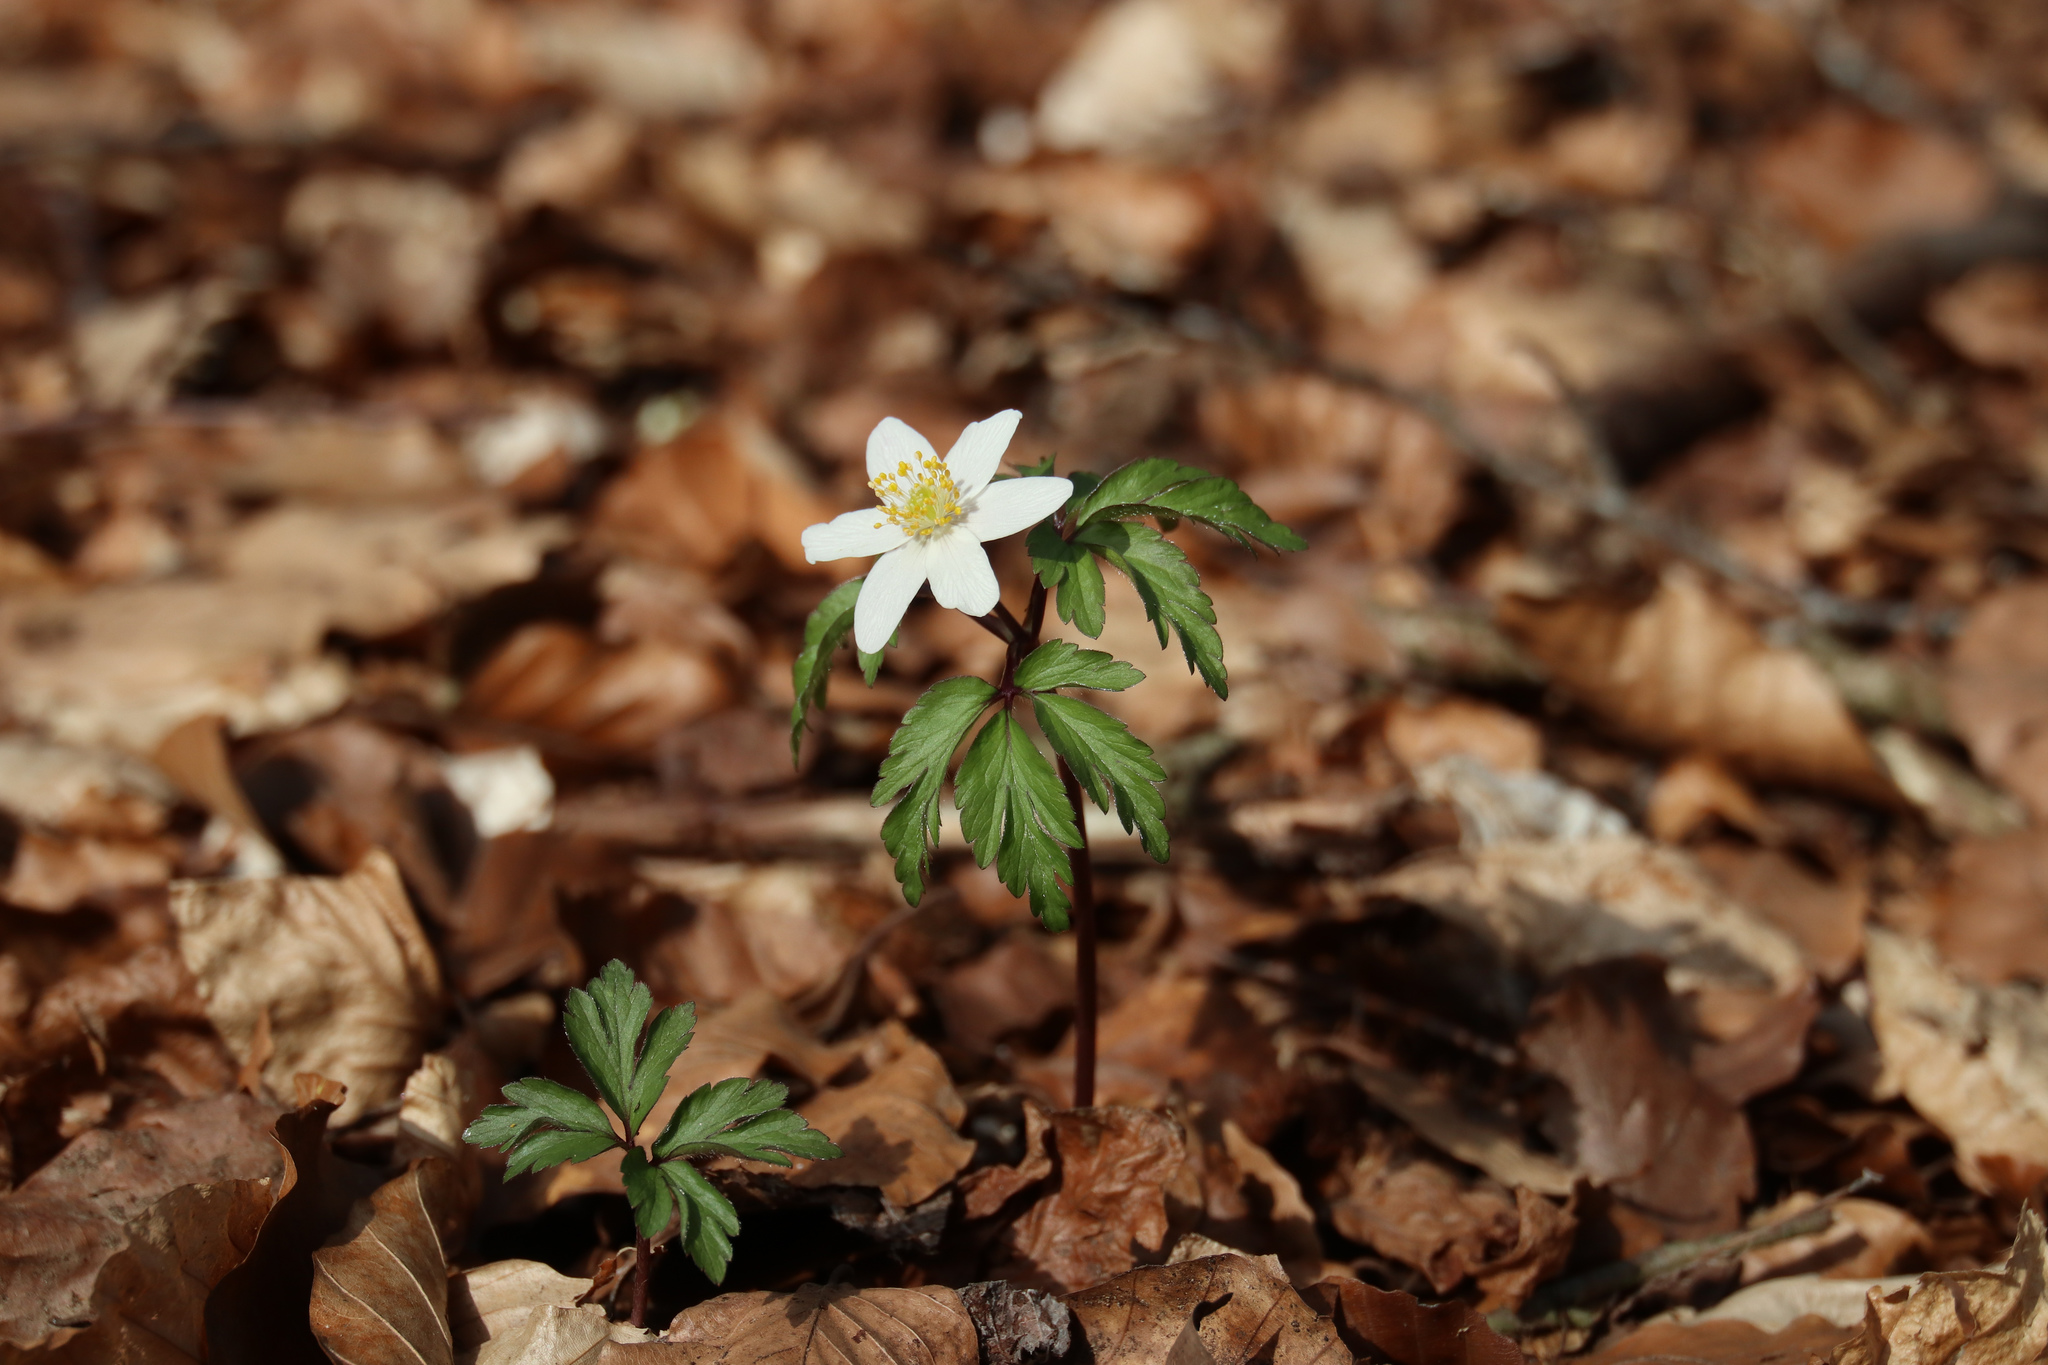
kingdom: Plantae
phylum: Tracheophyta
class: Magnoliopsida
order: Ranunculales
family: Ranunculaceae
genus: Anemone
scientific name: Anemone nemorosa
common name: Wood anemone
